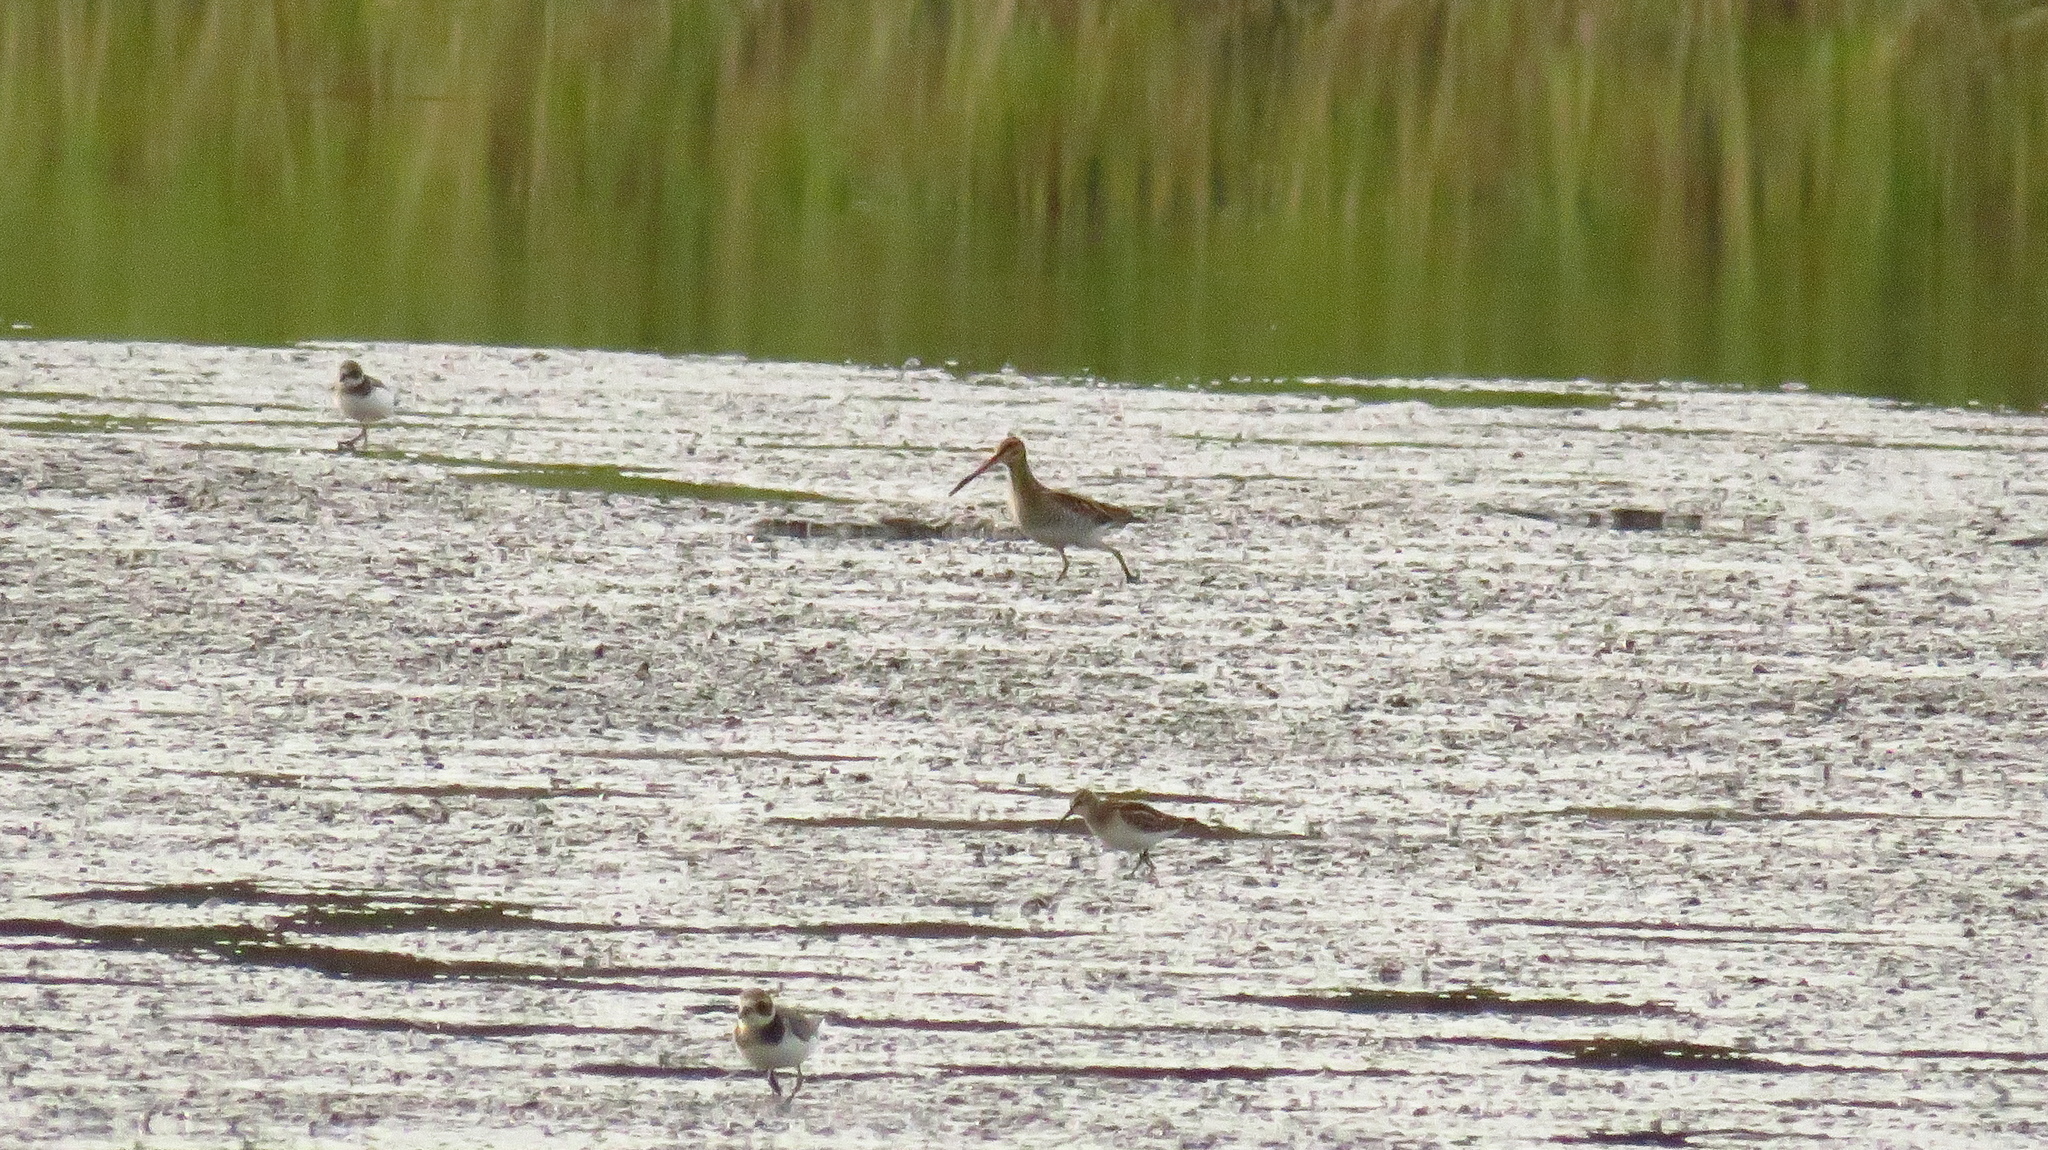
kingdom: Animalia
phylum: Chordata
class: Aves
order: Charadriiformes
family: Scolopacidae
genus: Calidris
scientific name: Calidris minuta
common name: Little stint
